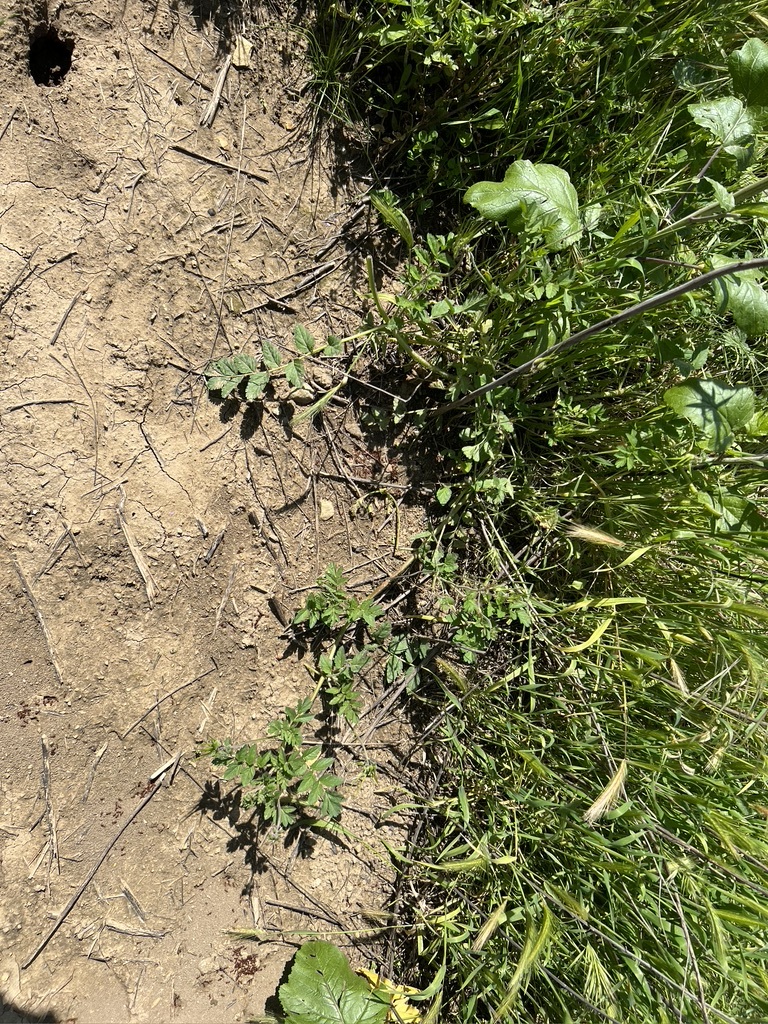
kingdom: Plantae
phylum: Tracheophyta
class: Magnoliopsida
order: Geraniales
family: Geraniaceae
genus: Erodium
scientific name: Erodium moschatum
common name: Musk stork's-bill
